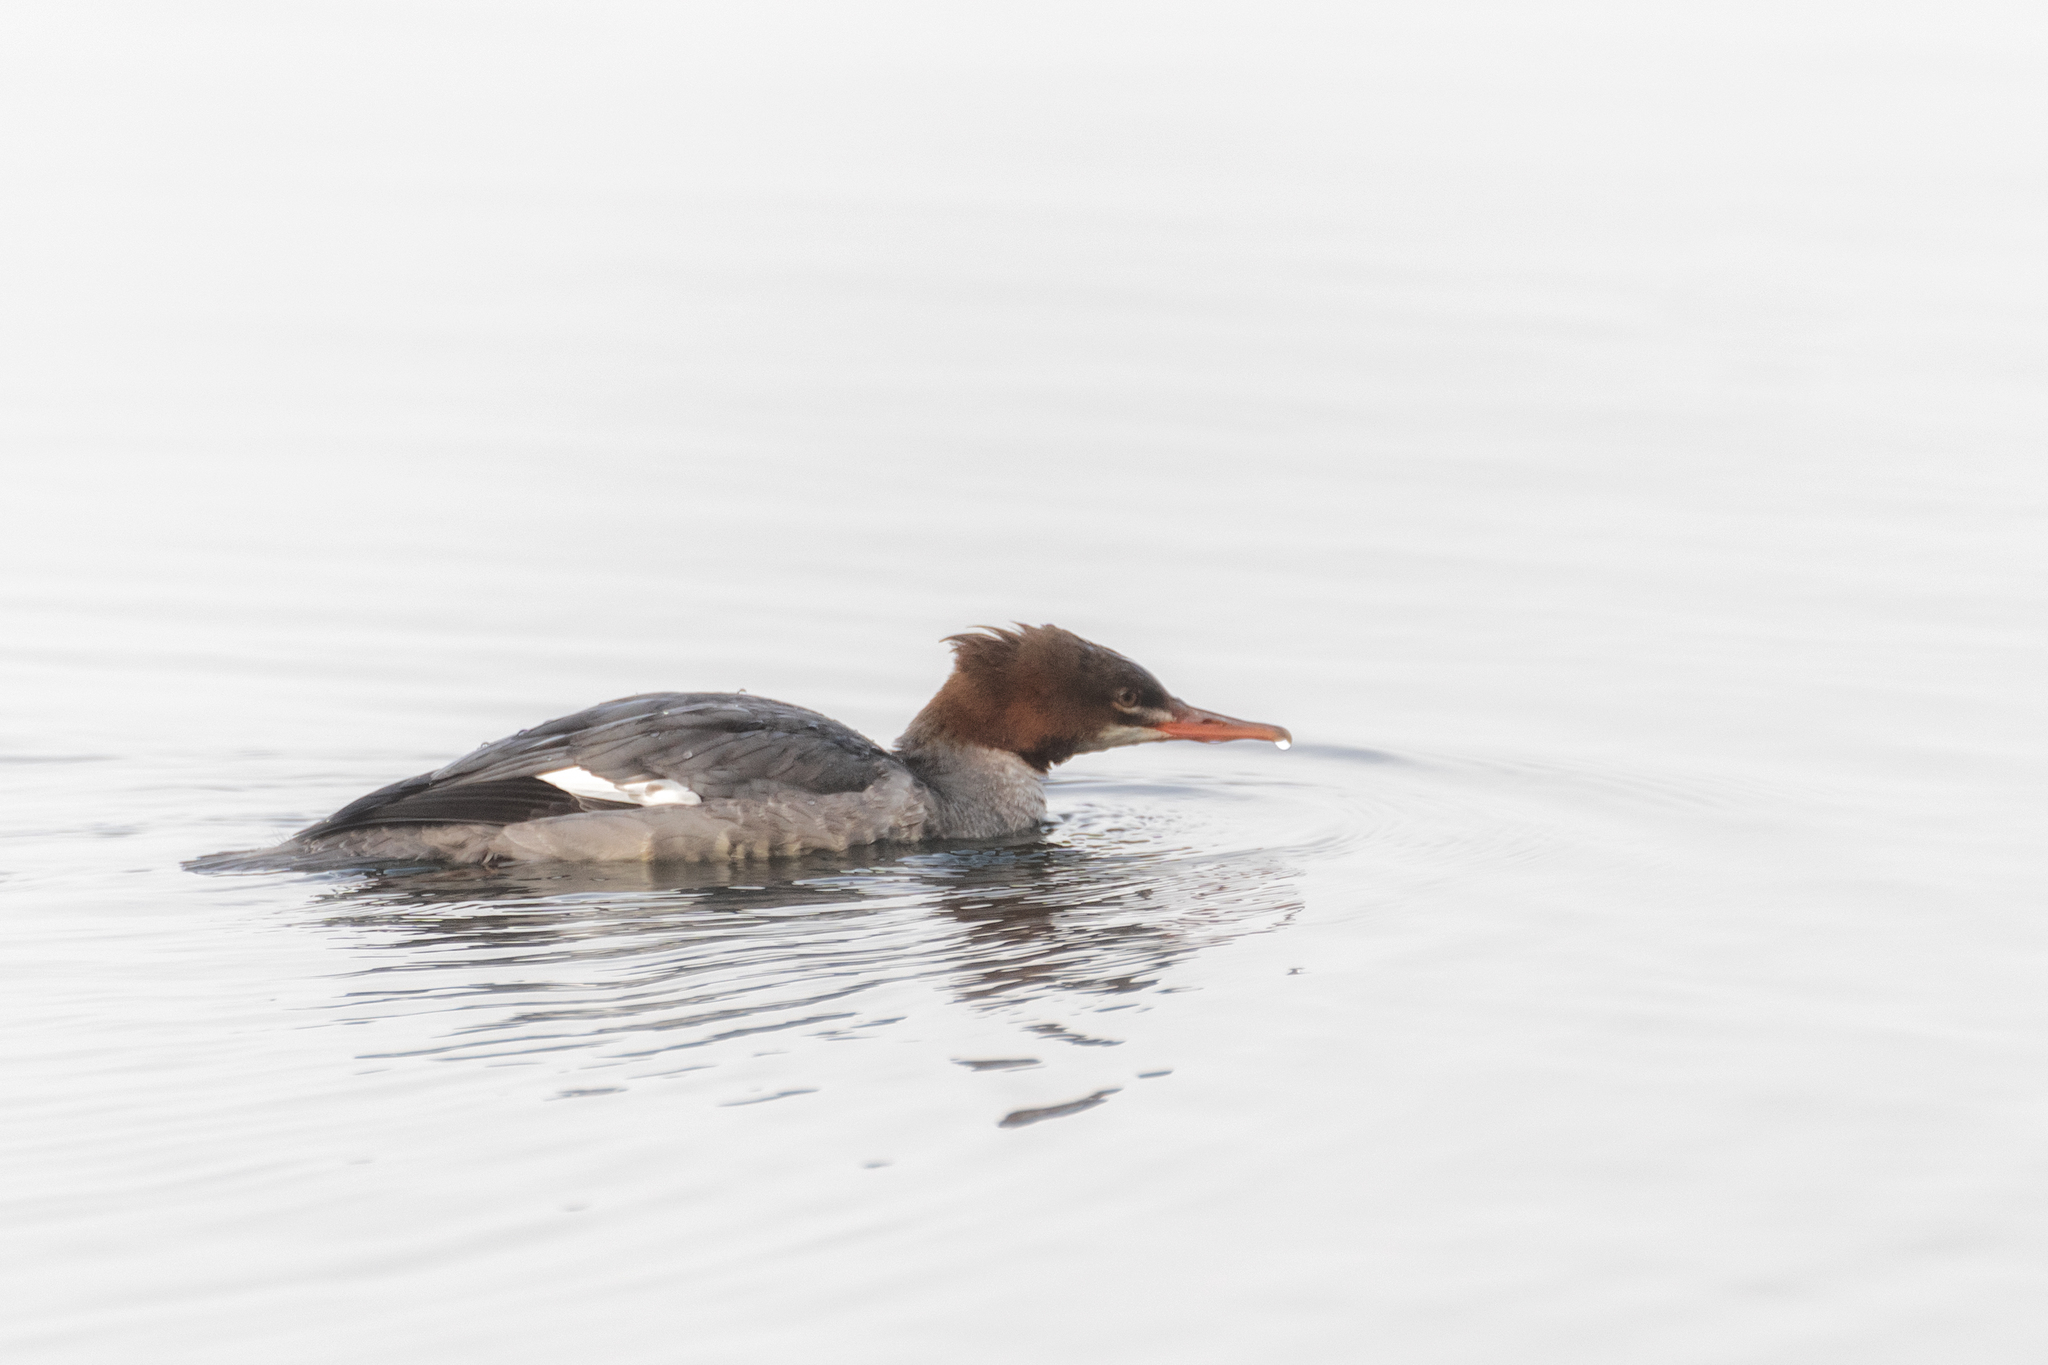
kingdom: Animalia
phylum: Chordata
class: Aves
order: Anseriformes
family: Anatidae
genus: Mergus
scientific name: Mergus merganser
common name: Common merganser
